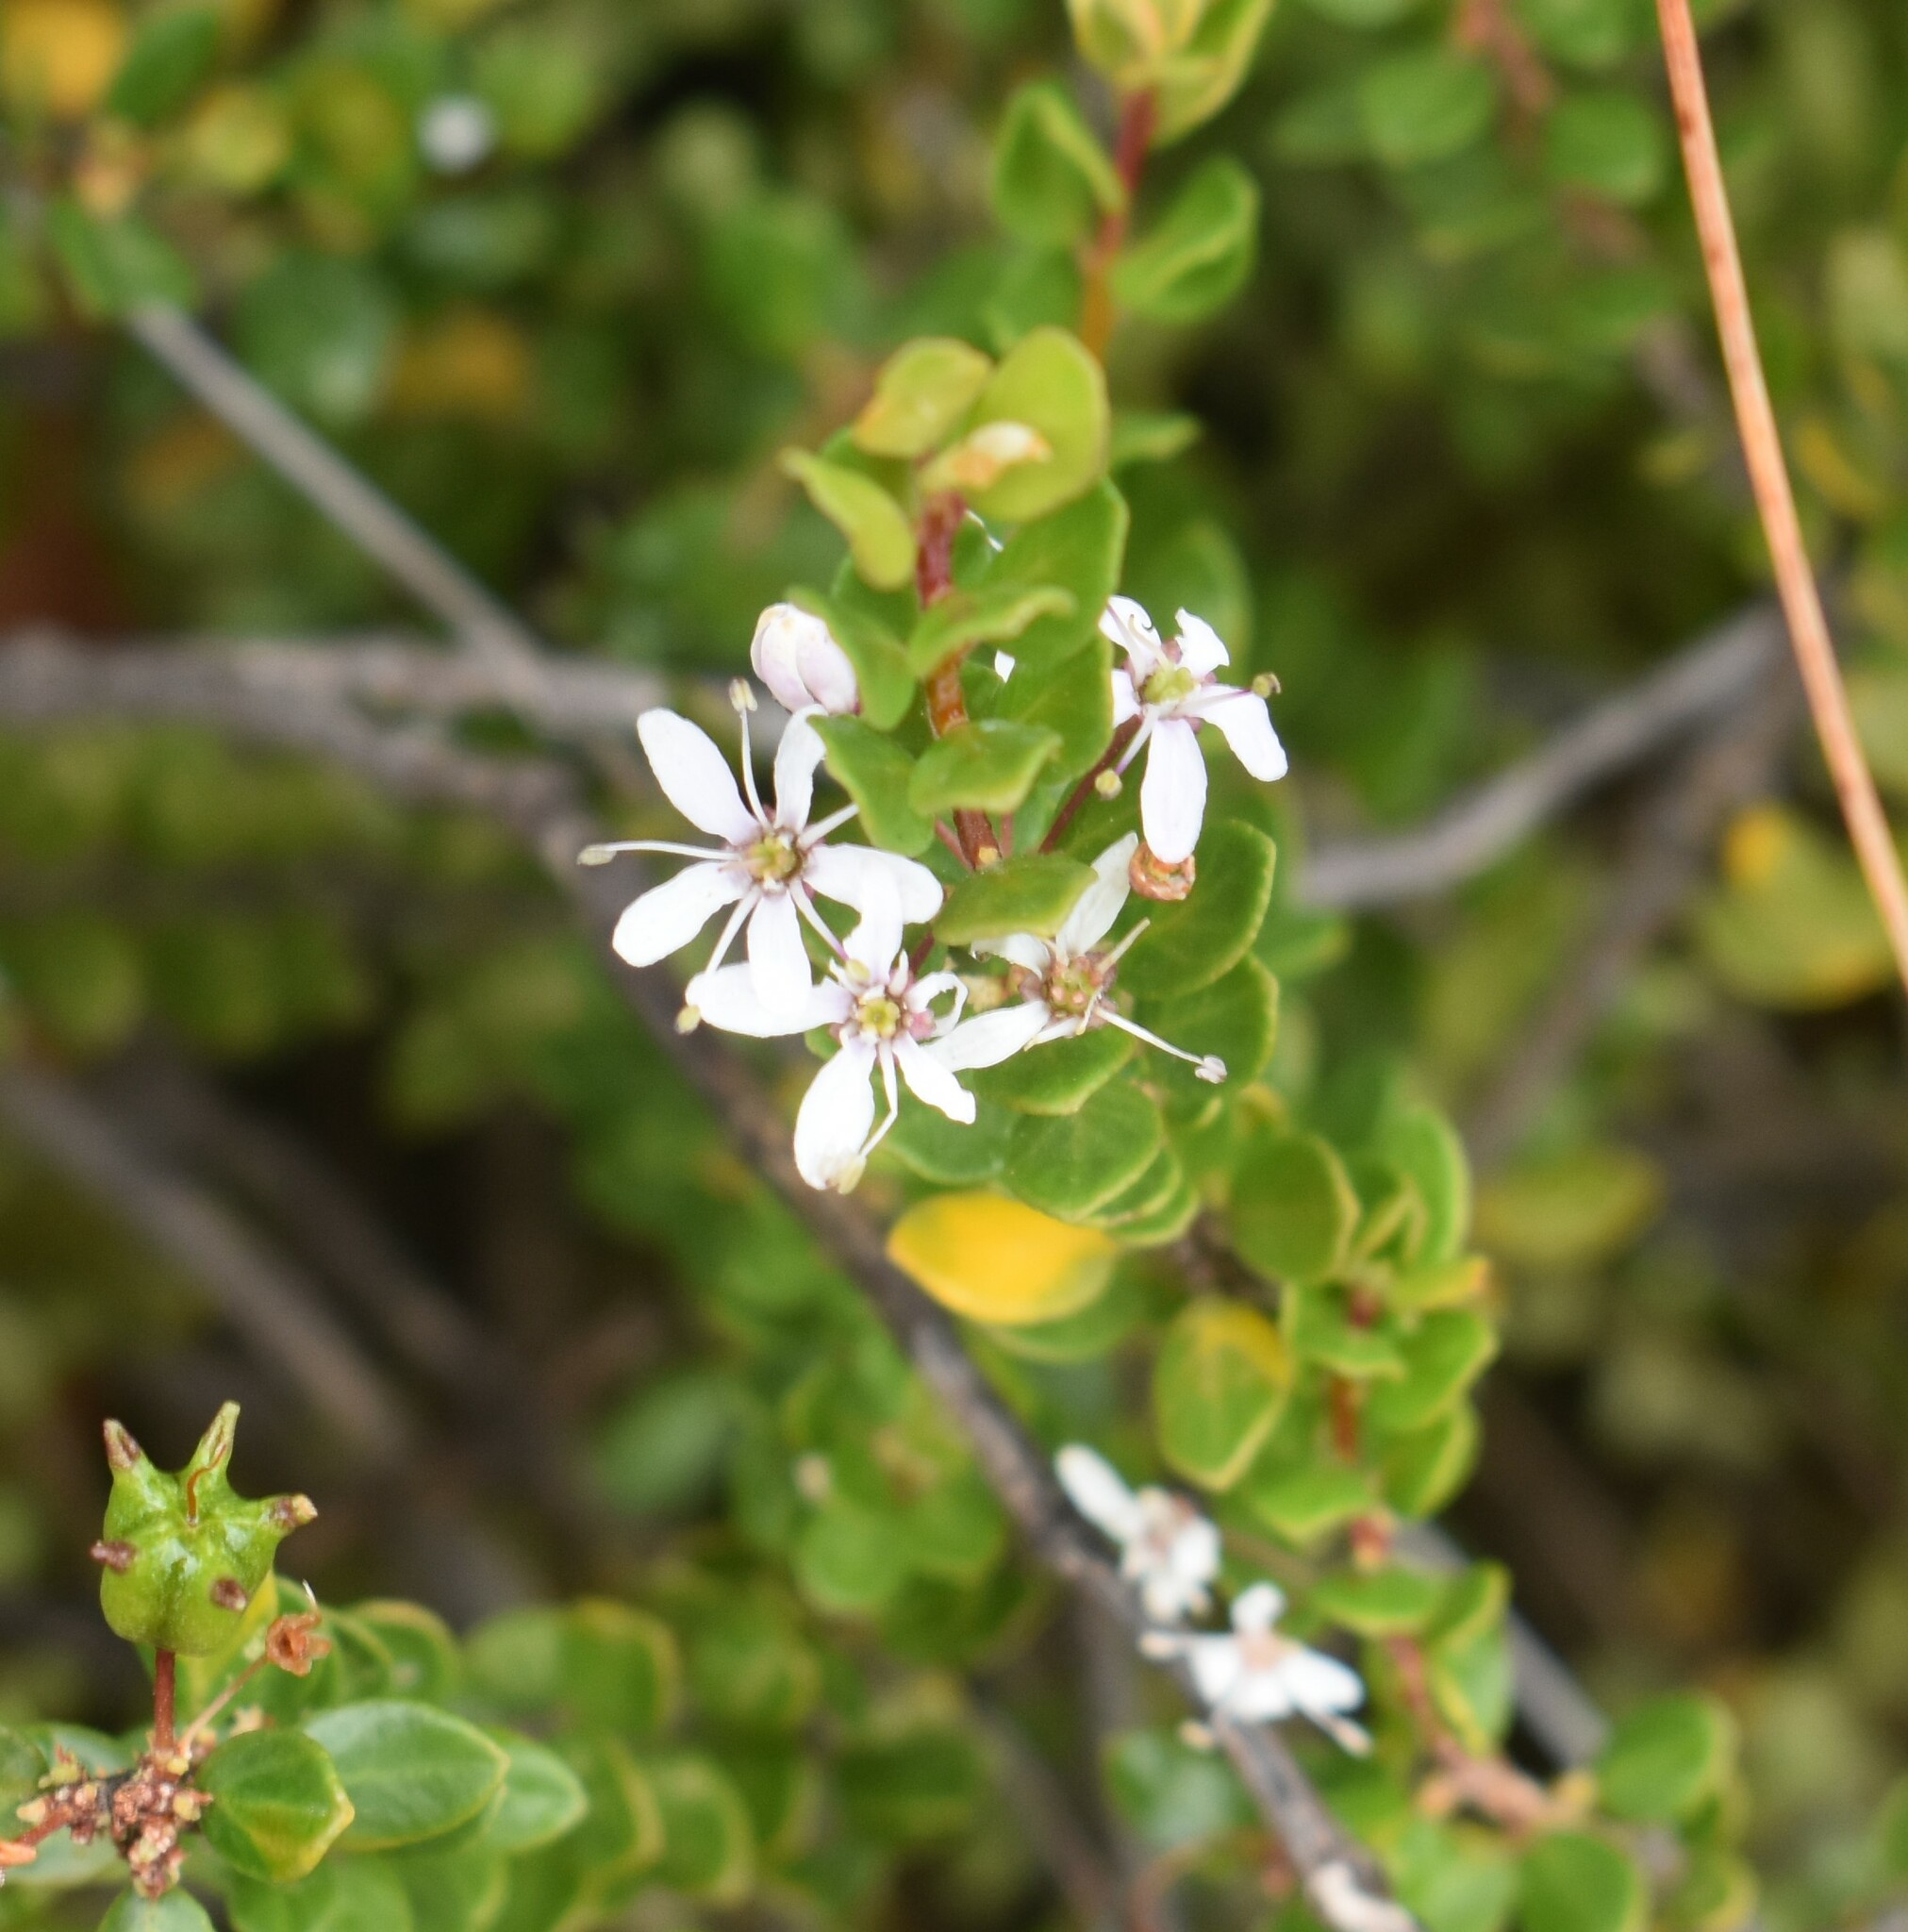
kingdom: Plantae
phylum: Tracheophyta
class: Magnoliopsida
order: Sapindales
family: Rutaceae
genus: Agathosma
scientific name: Agathosma ovata
